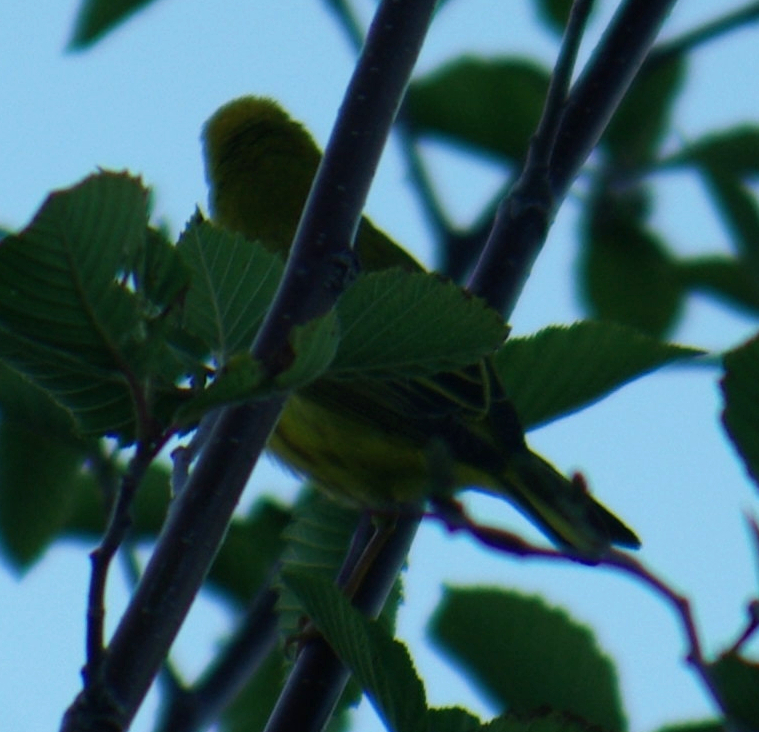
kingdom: Animalia
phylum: Chordata
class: Aves
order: Passeriformes
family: Parulidae
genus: Setophaga
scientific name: Setophaga petechia
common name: Yellow warbler
